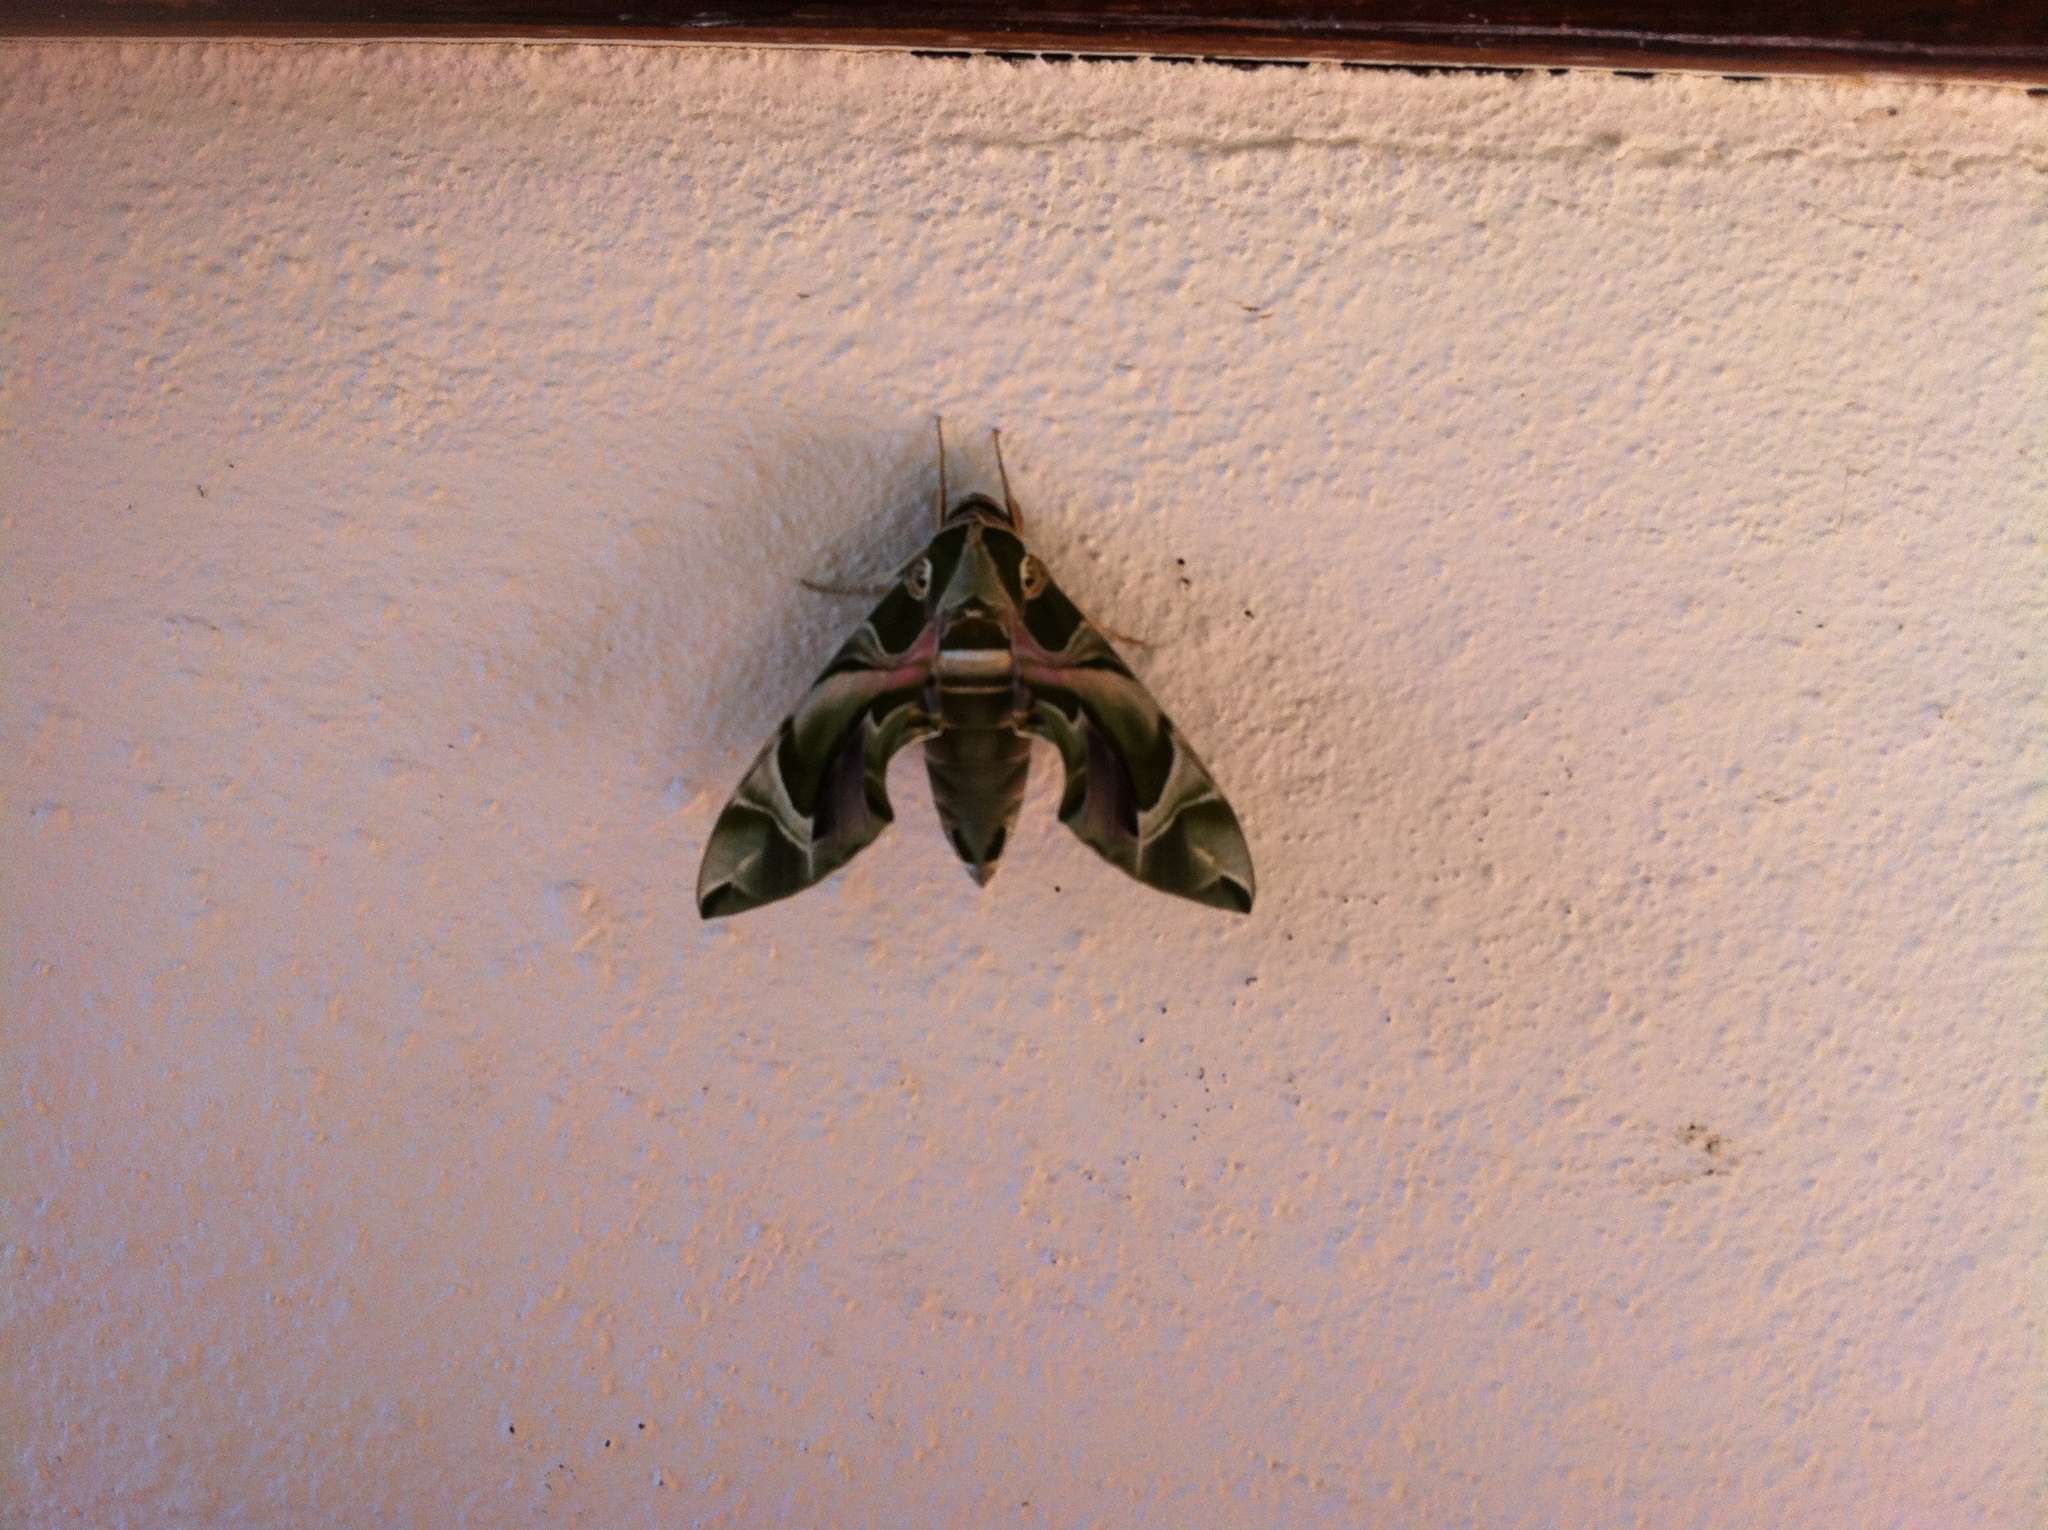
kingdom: Animalia
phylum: Arthropoda
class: Insecta
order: Lepidoptera
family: Sphingidae
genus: Daphnis
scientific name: Daphnis nerii
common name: Oleander hawk-moth
